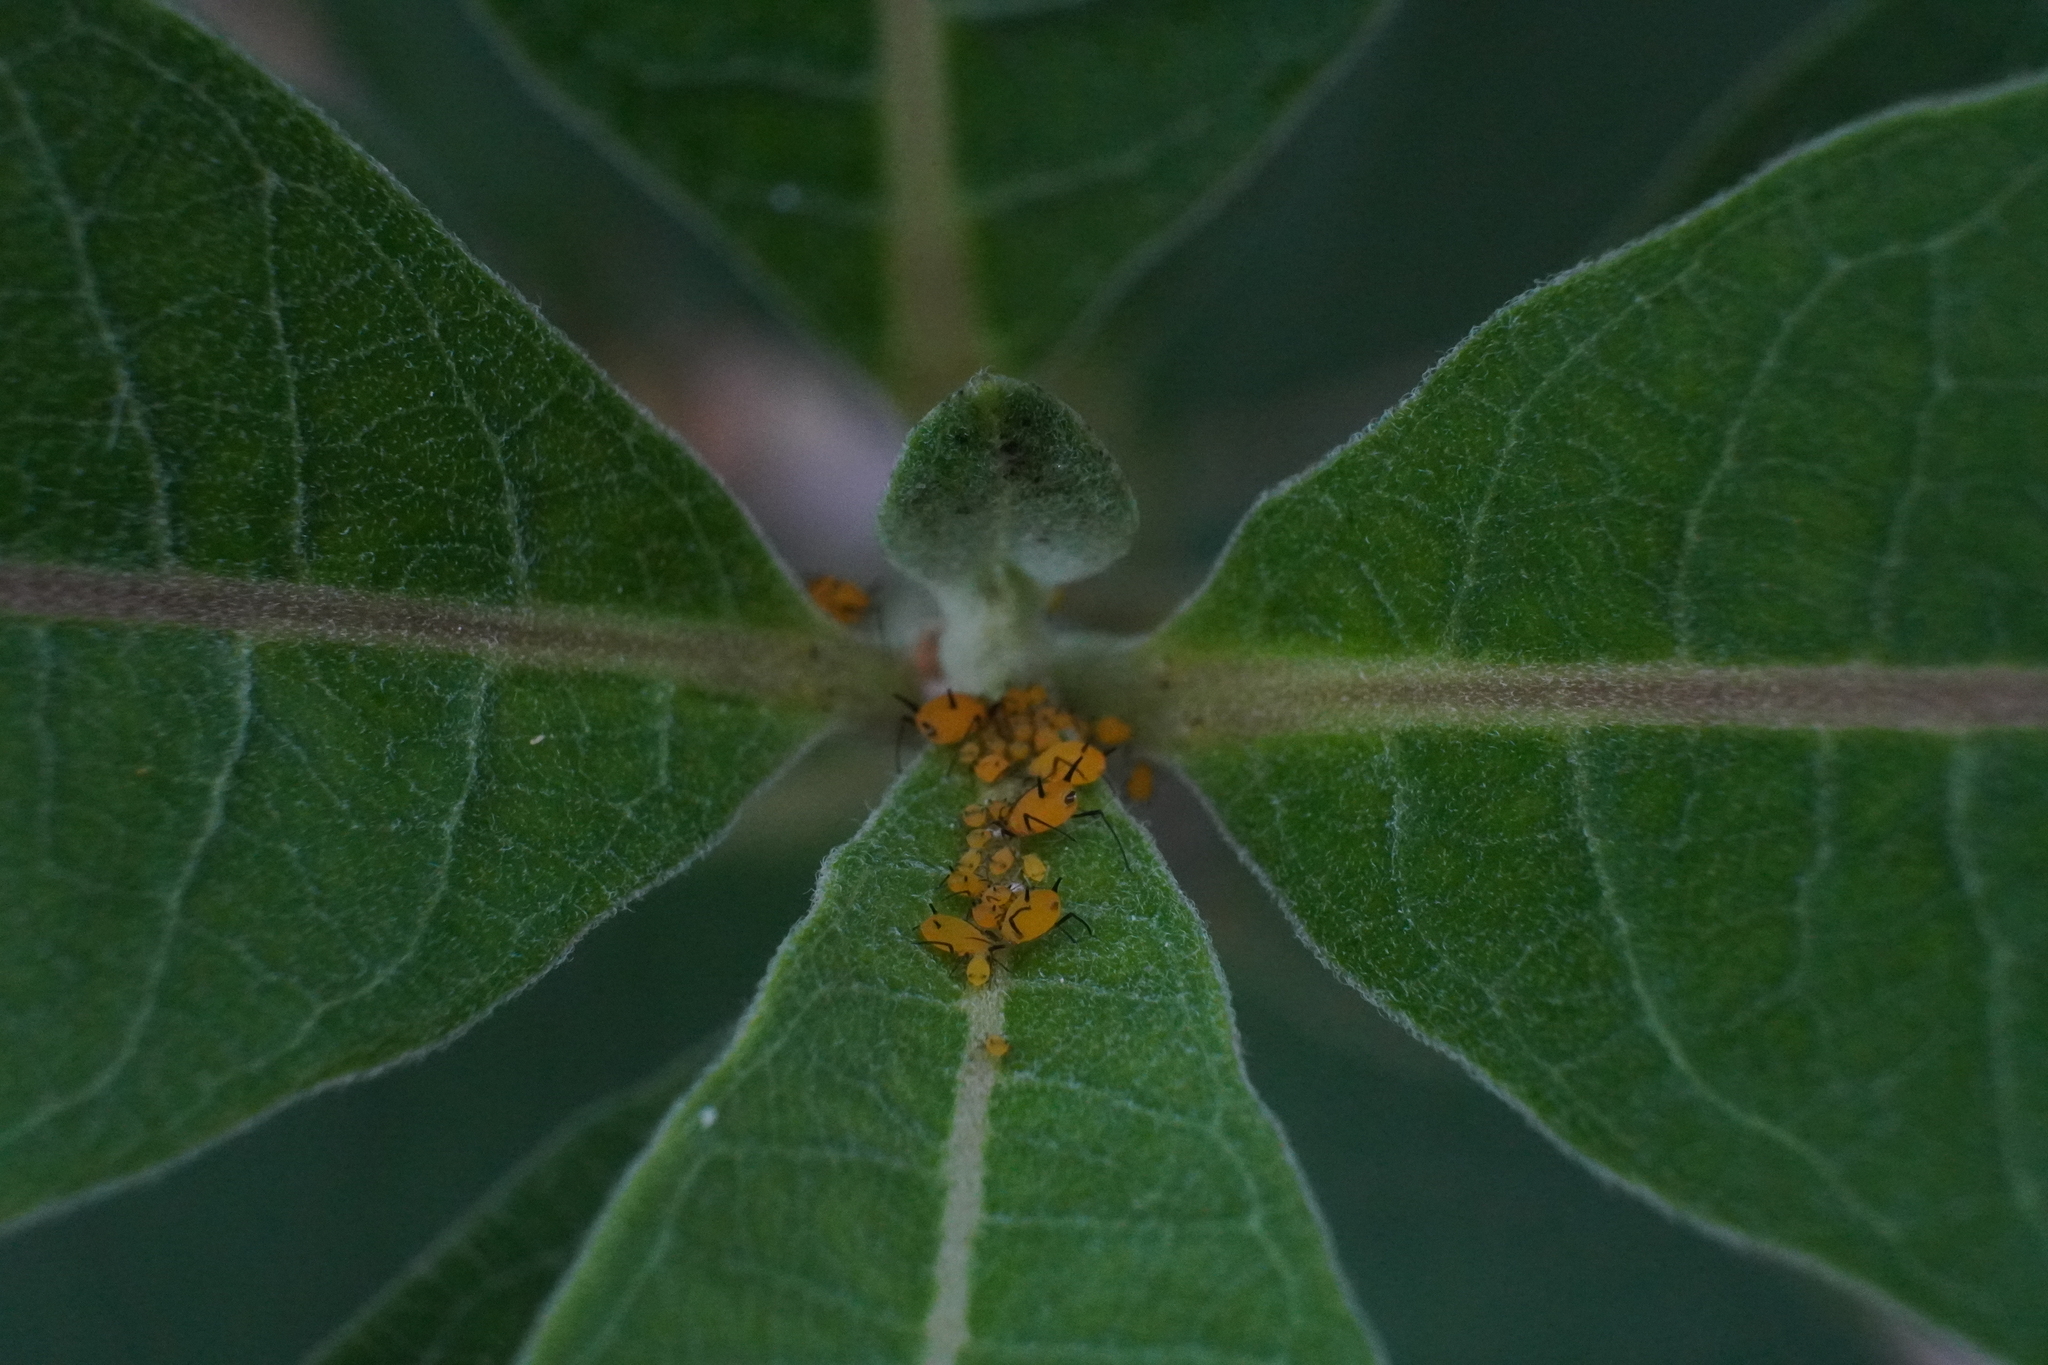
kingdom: Animalia
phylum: Arthropoda
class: Insecta
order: Hemiptera
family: Aphididae
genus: Aphis
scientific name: Aphis nerii
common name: Oleander aphid
